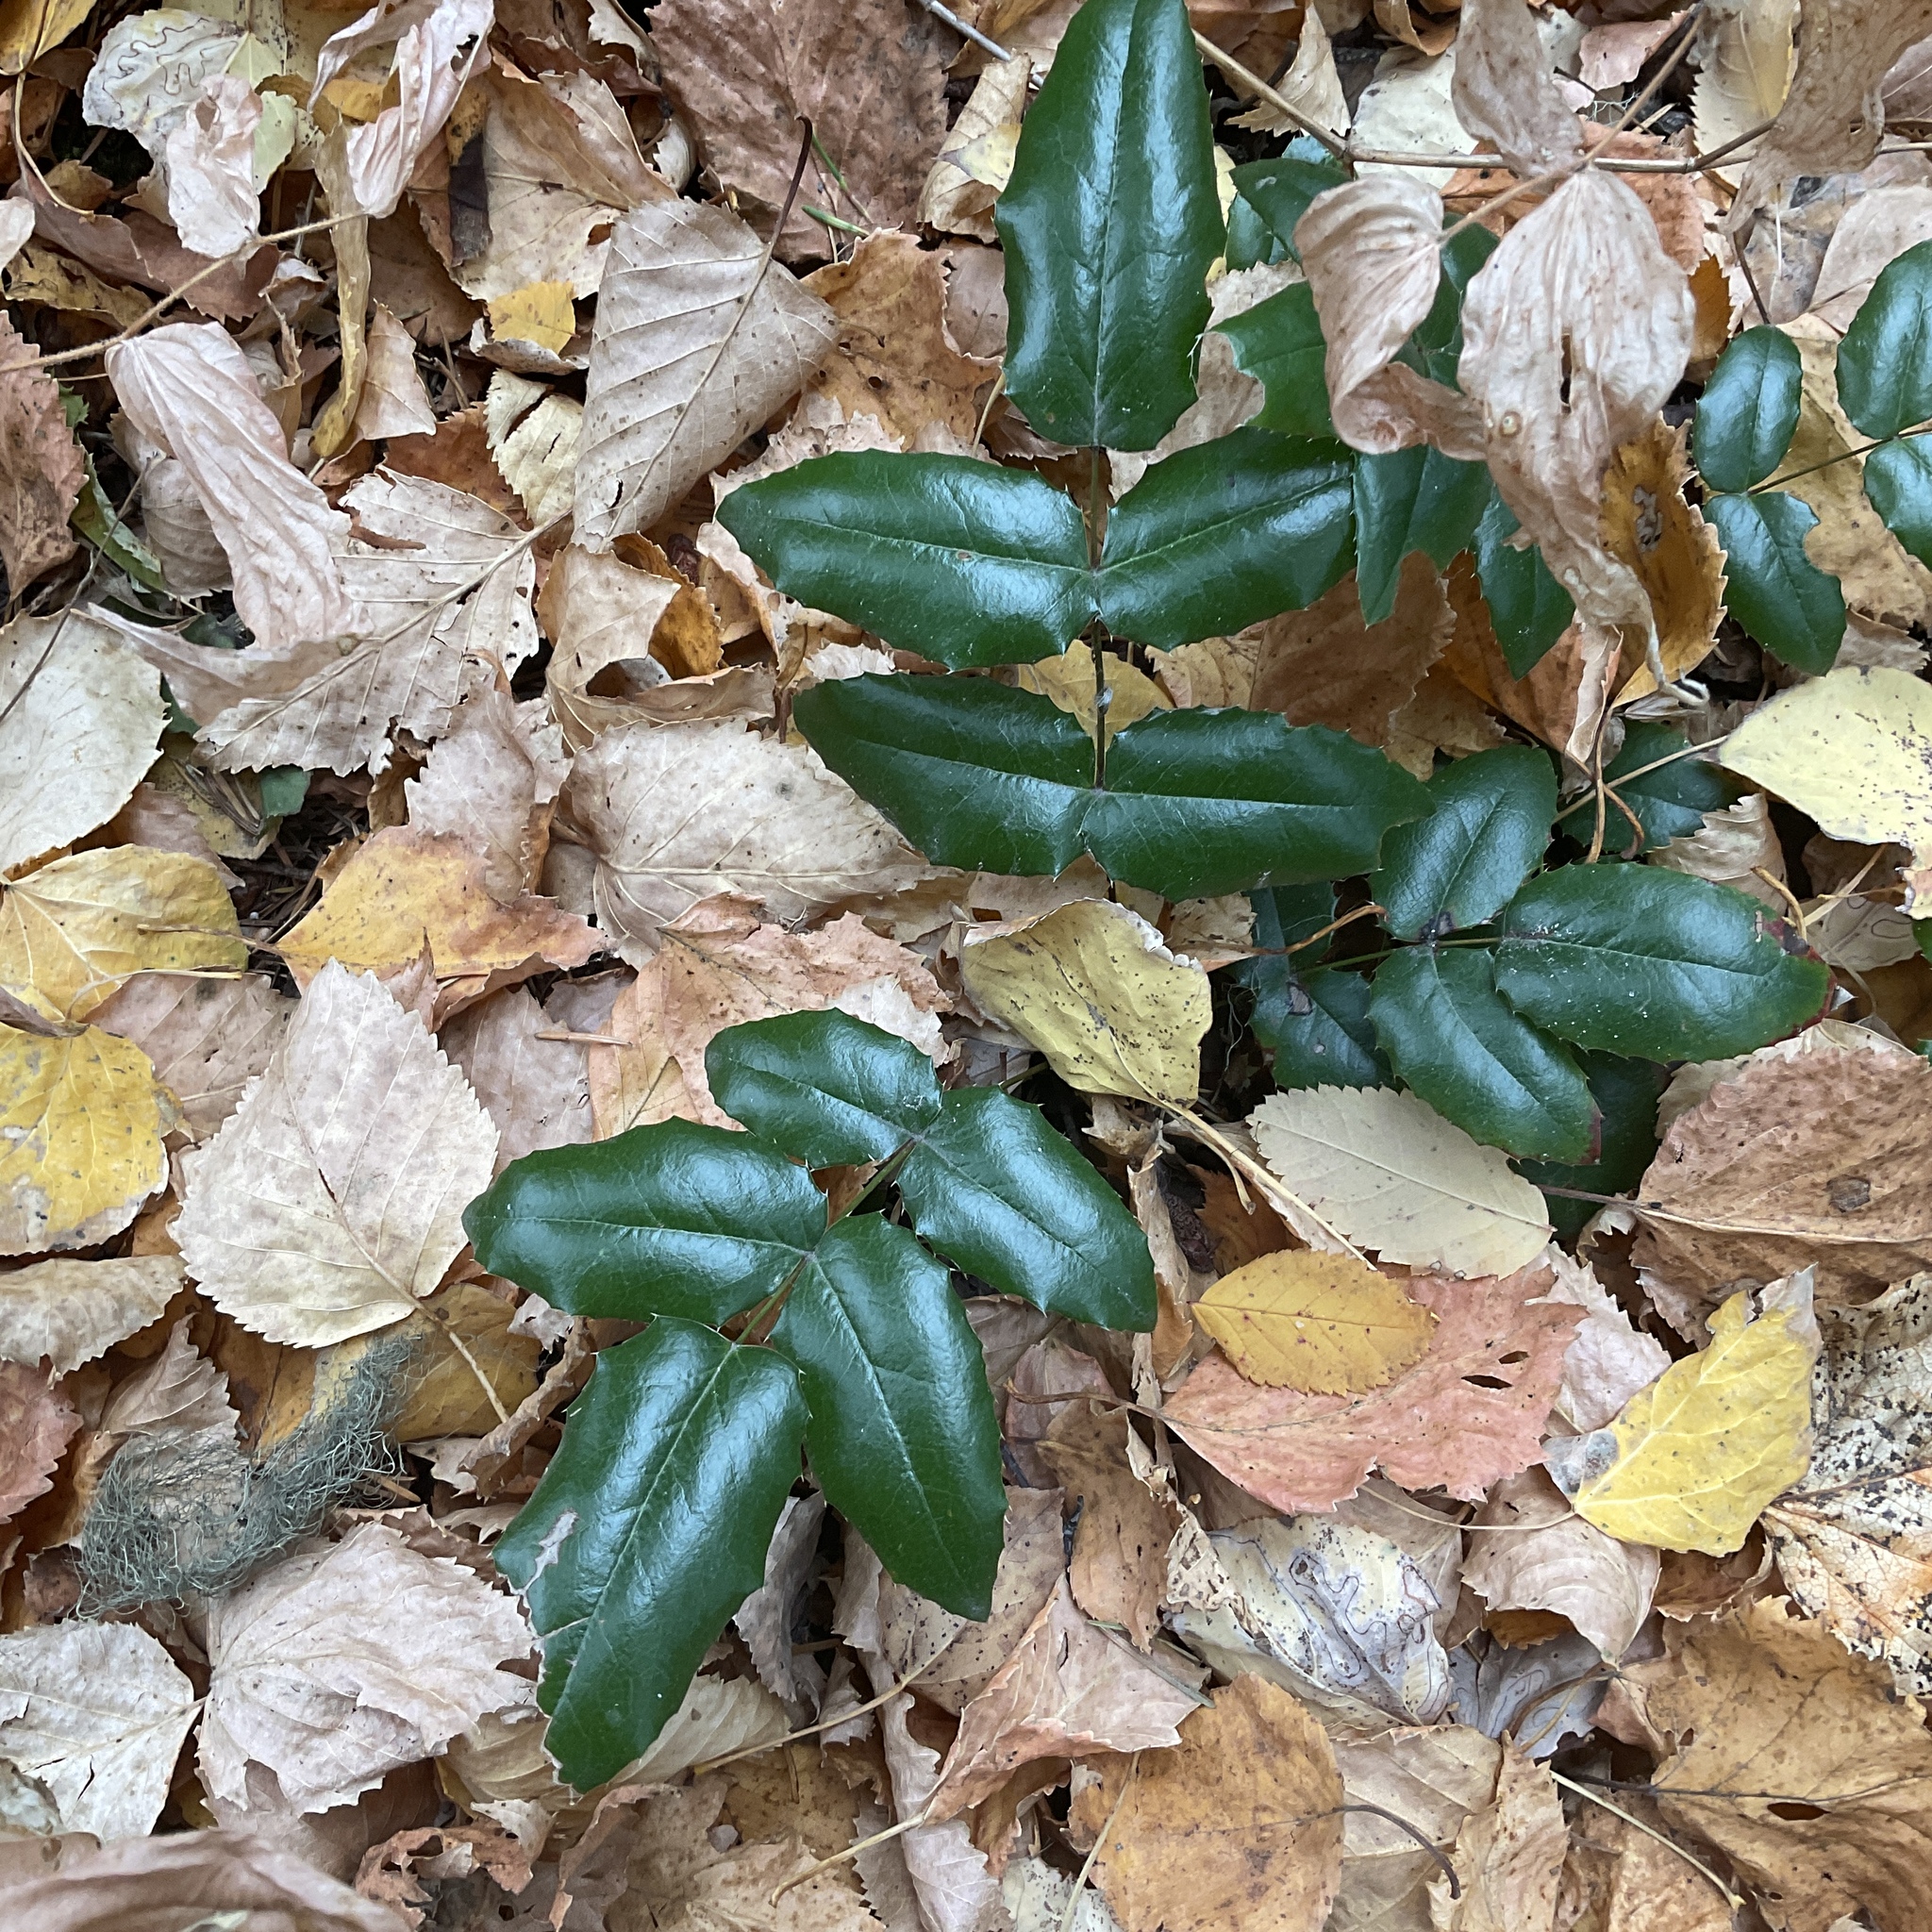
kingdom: Plantae
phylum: Tracheophyta
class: Magnoliopsida
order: Ranunculales
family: Berberidaceae
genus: Mahonia
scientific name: Mahonia aquifolium
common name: Oregon-grape
